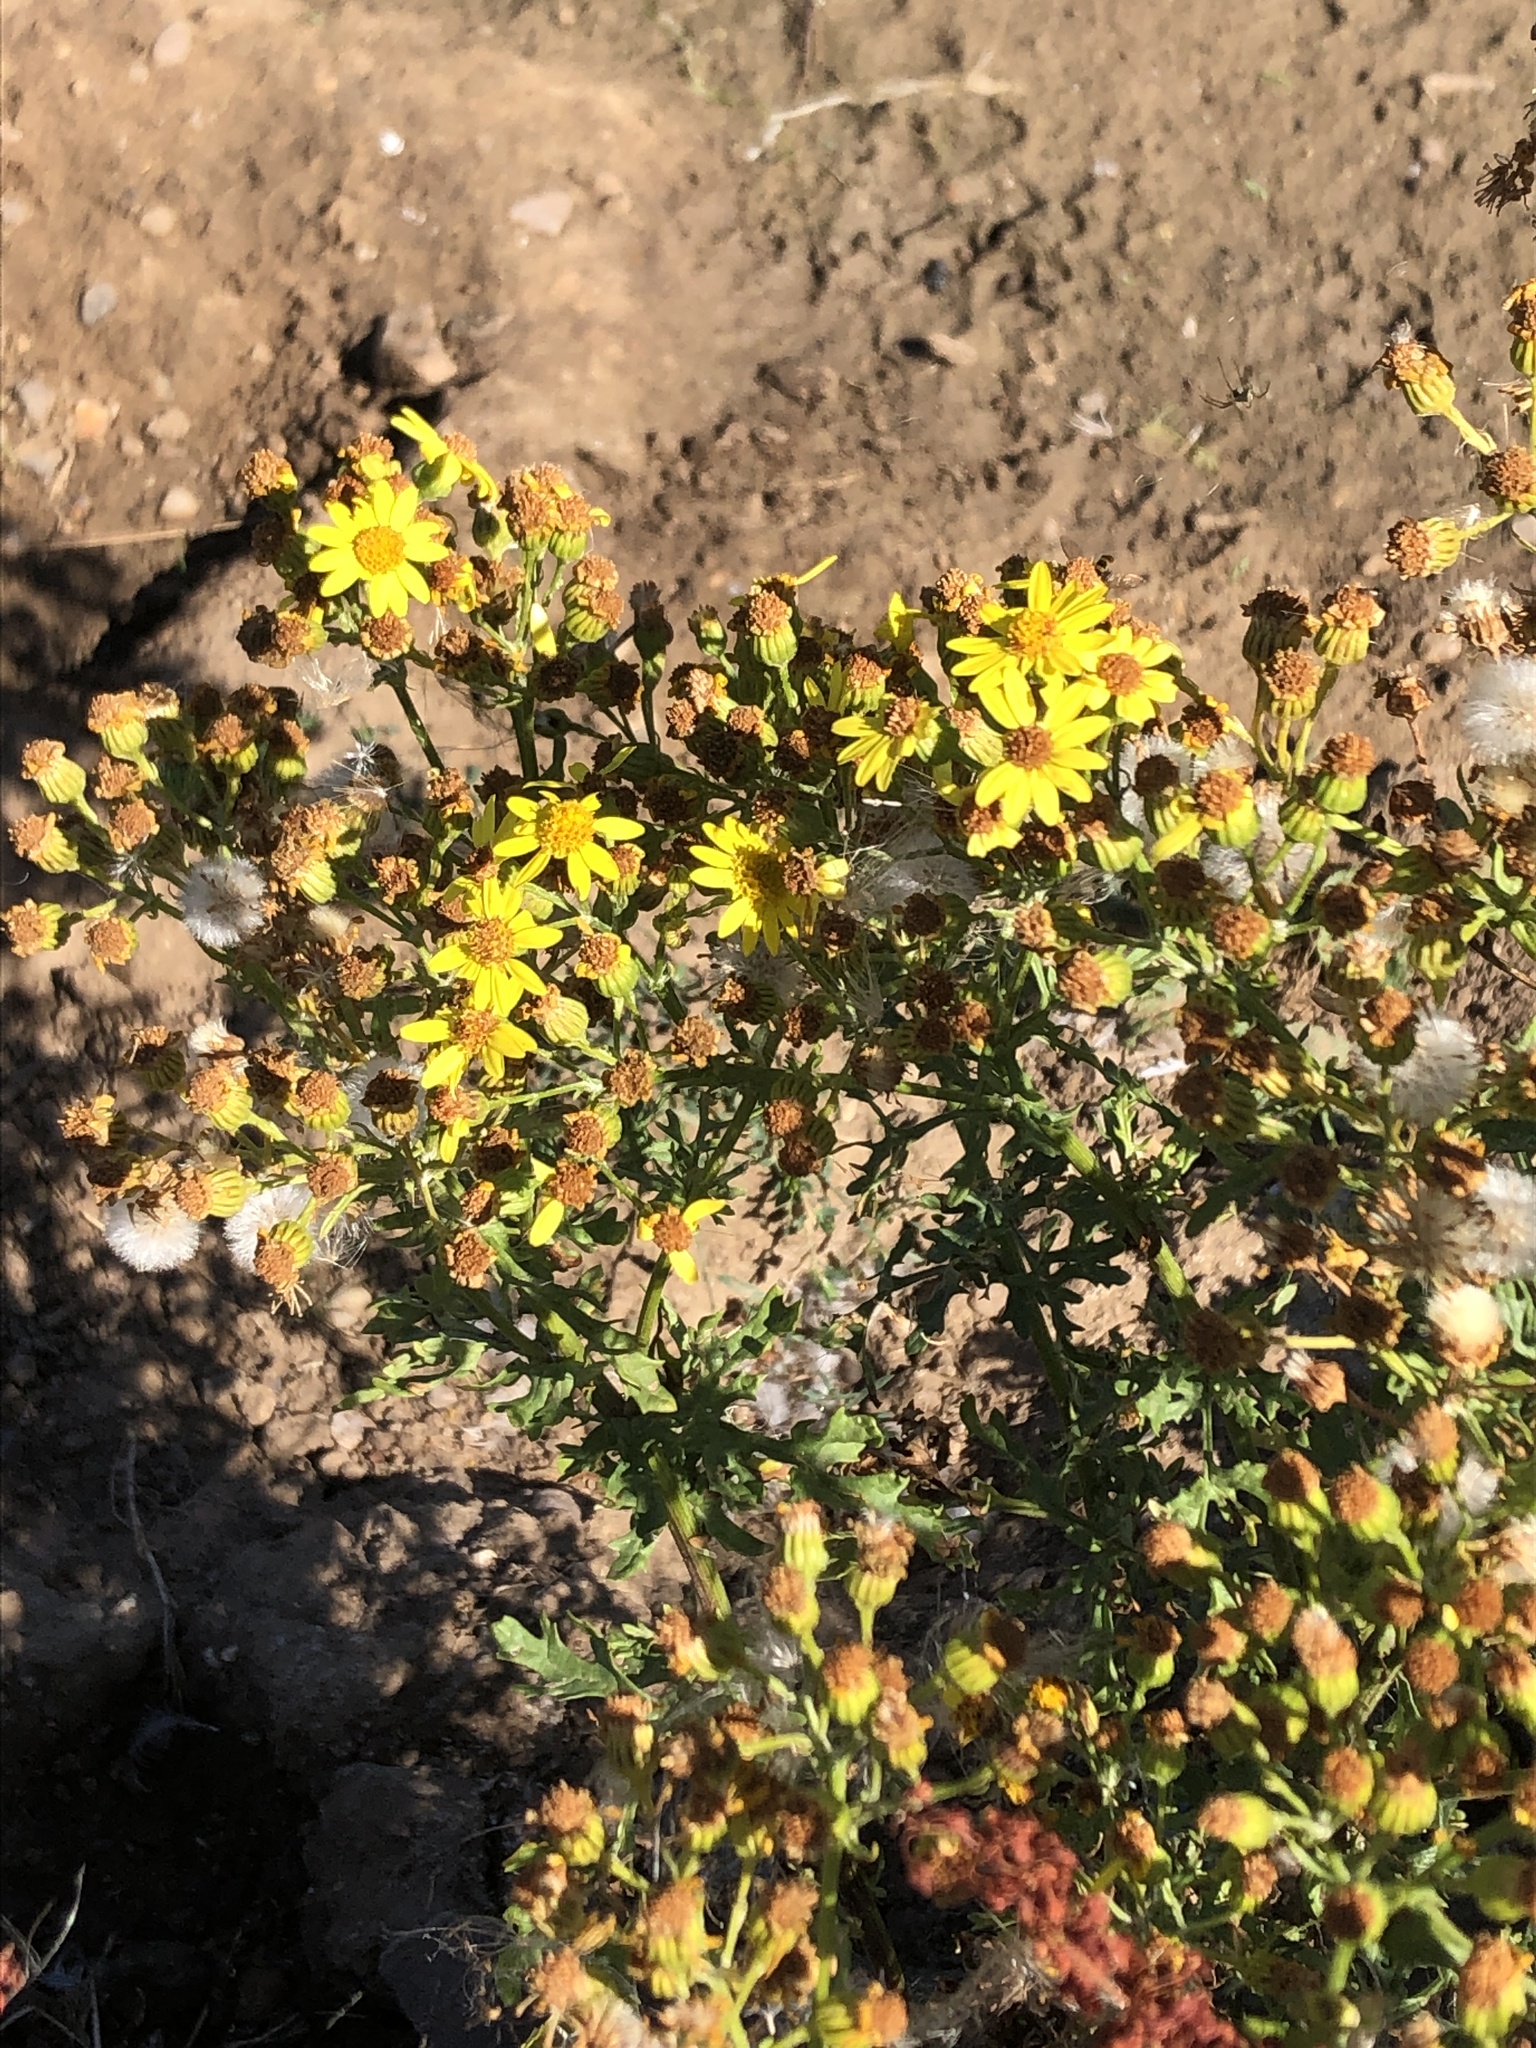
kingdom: Plantae
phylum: Tracheophyta
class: Magnoliopsida
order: Asterales
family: Asteraceae
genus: Jacobaea
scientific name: Jacobaea vulgaris
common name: Stinking willie
